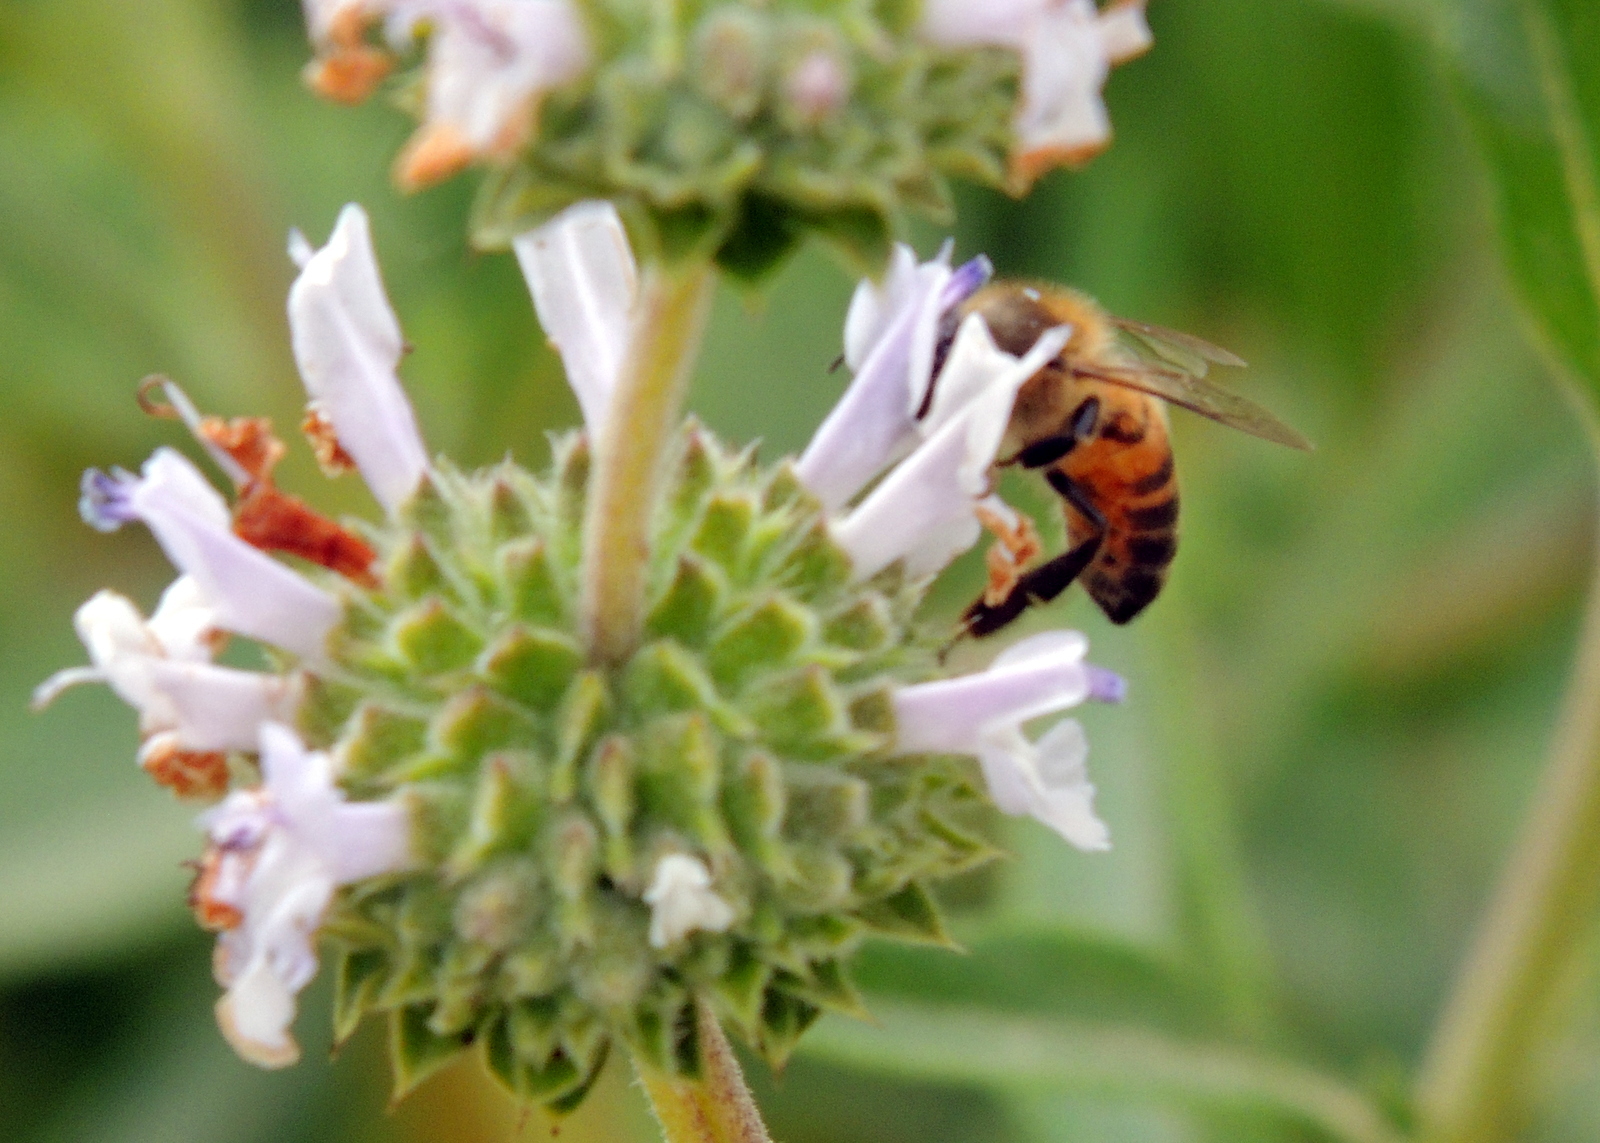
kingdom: Animalia
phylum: Arthropoda
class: Insecta
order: Hymenoptera
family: Apidae
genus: Apis
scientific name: Apis mellifera
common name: Honey bee
